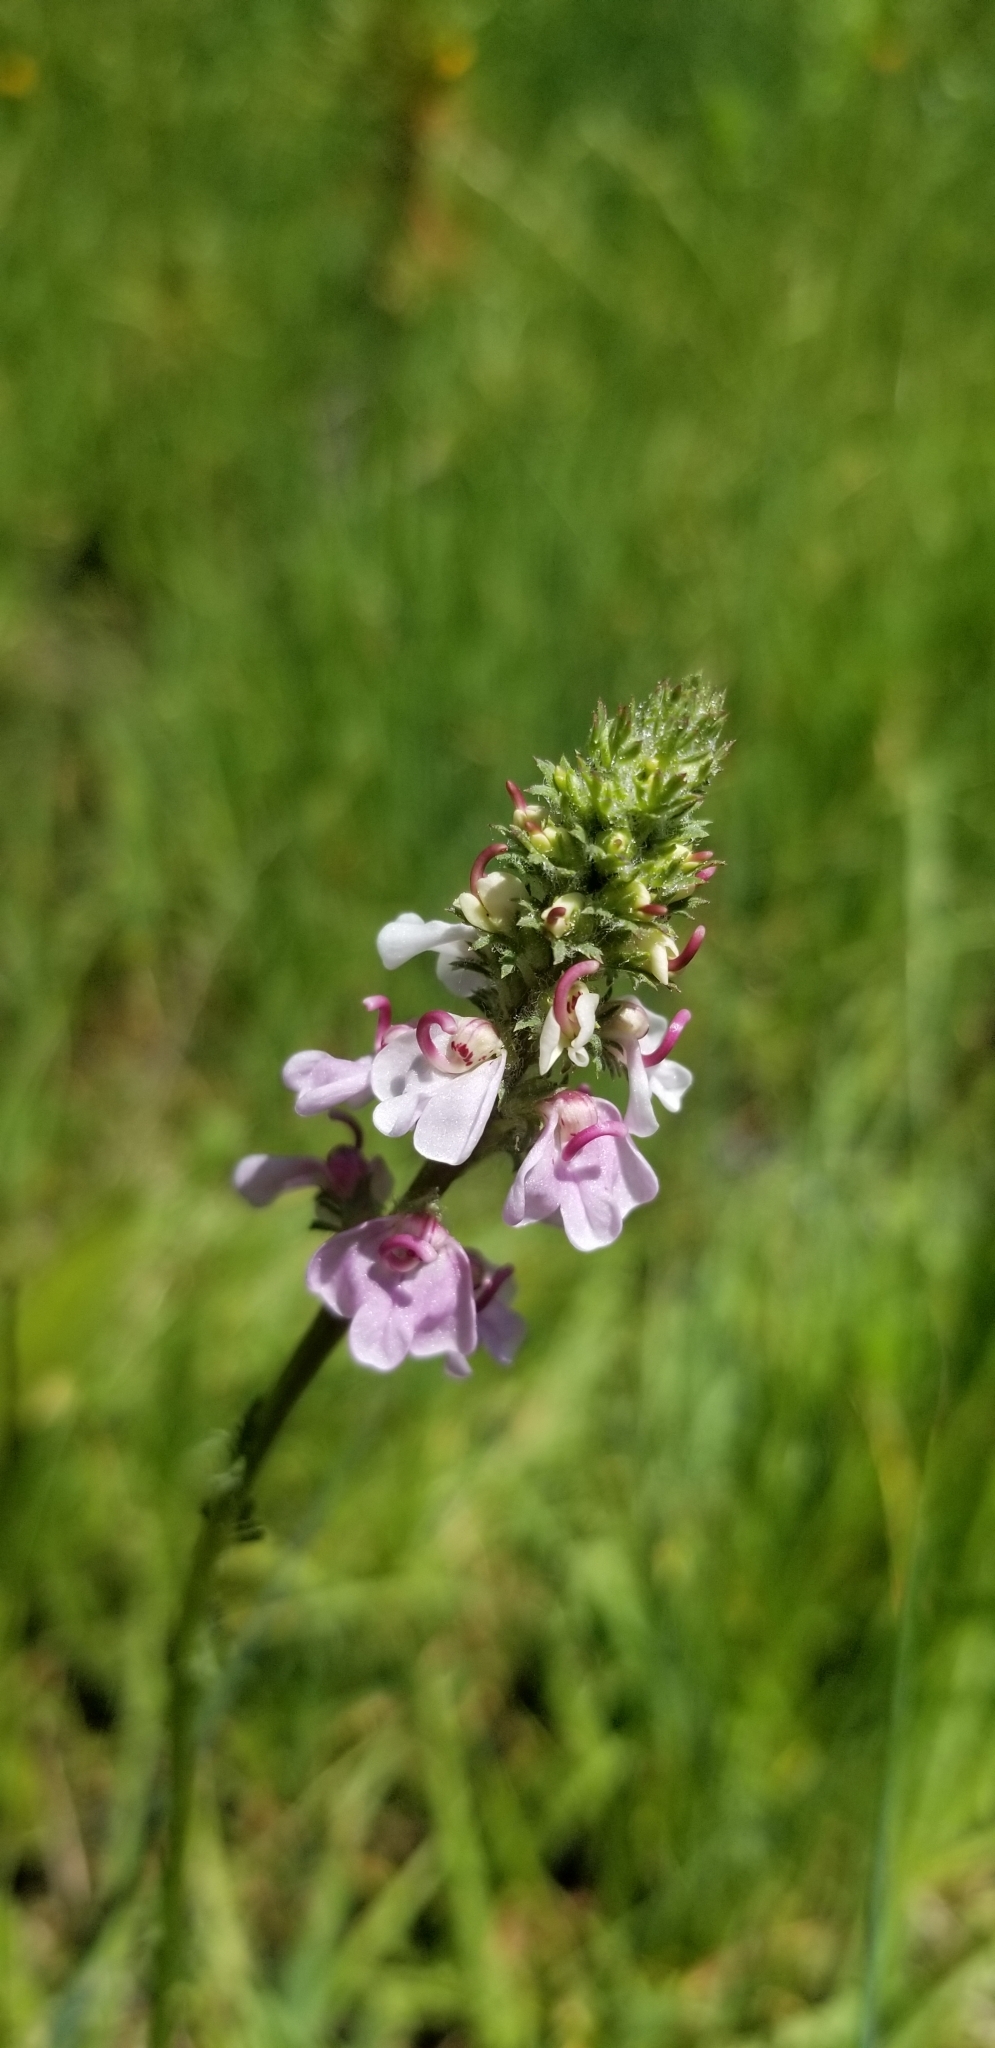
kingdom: Plantae
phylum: Tracheophyta
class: Magnoliopsida
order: Lamiales
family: Orobanchaceae
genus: Pedicularis
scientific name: Pedicularis attollens
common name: Slender pedicularis
